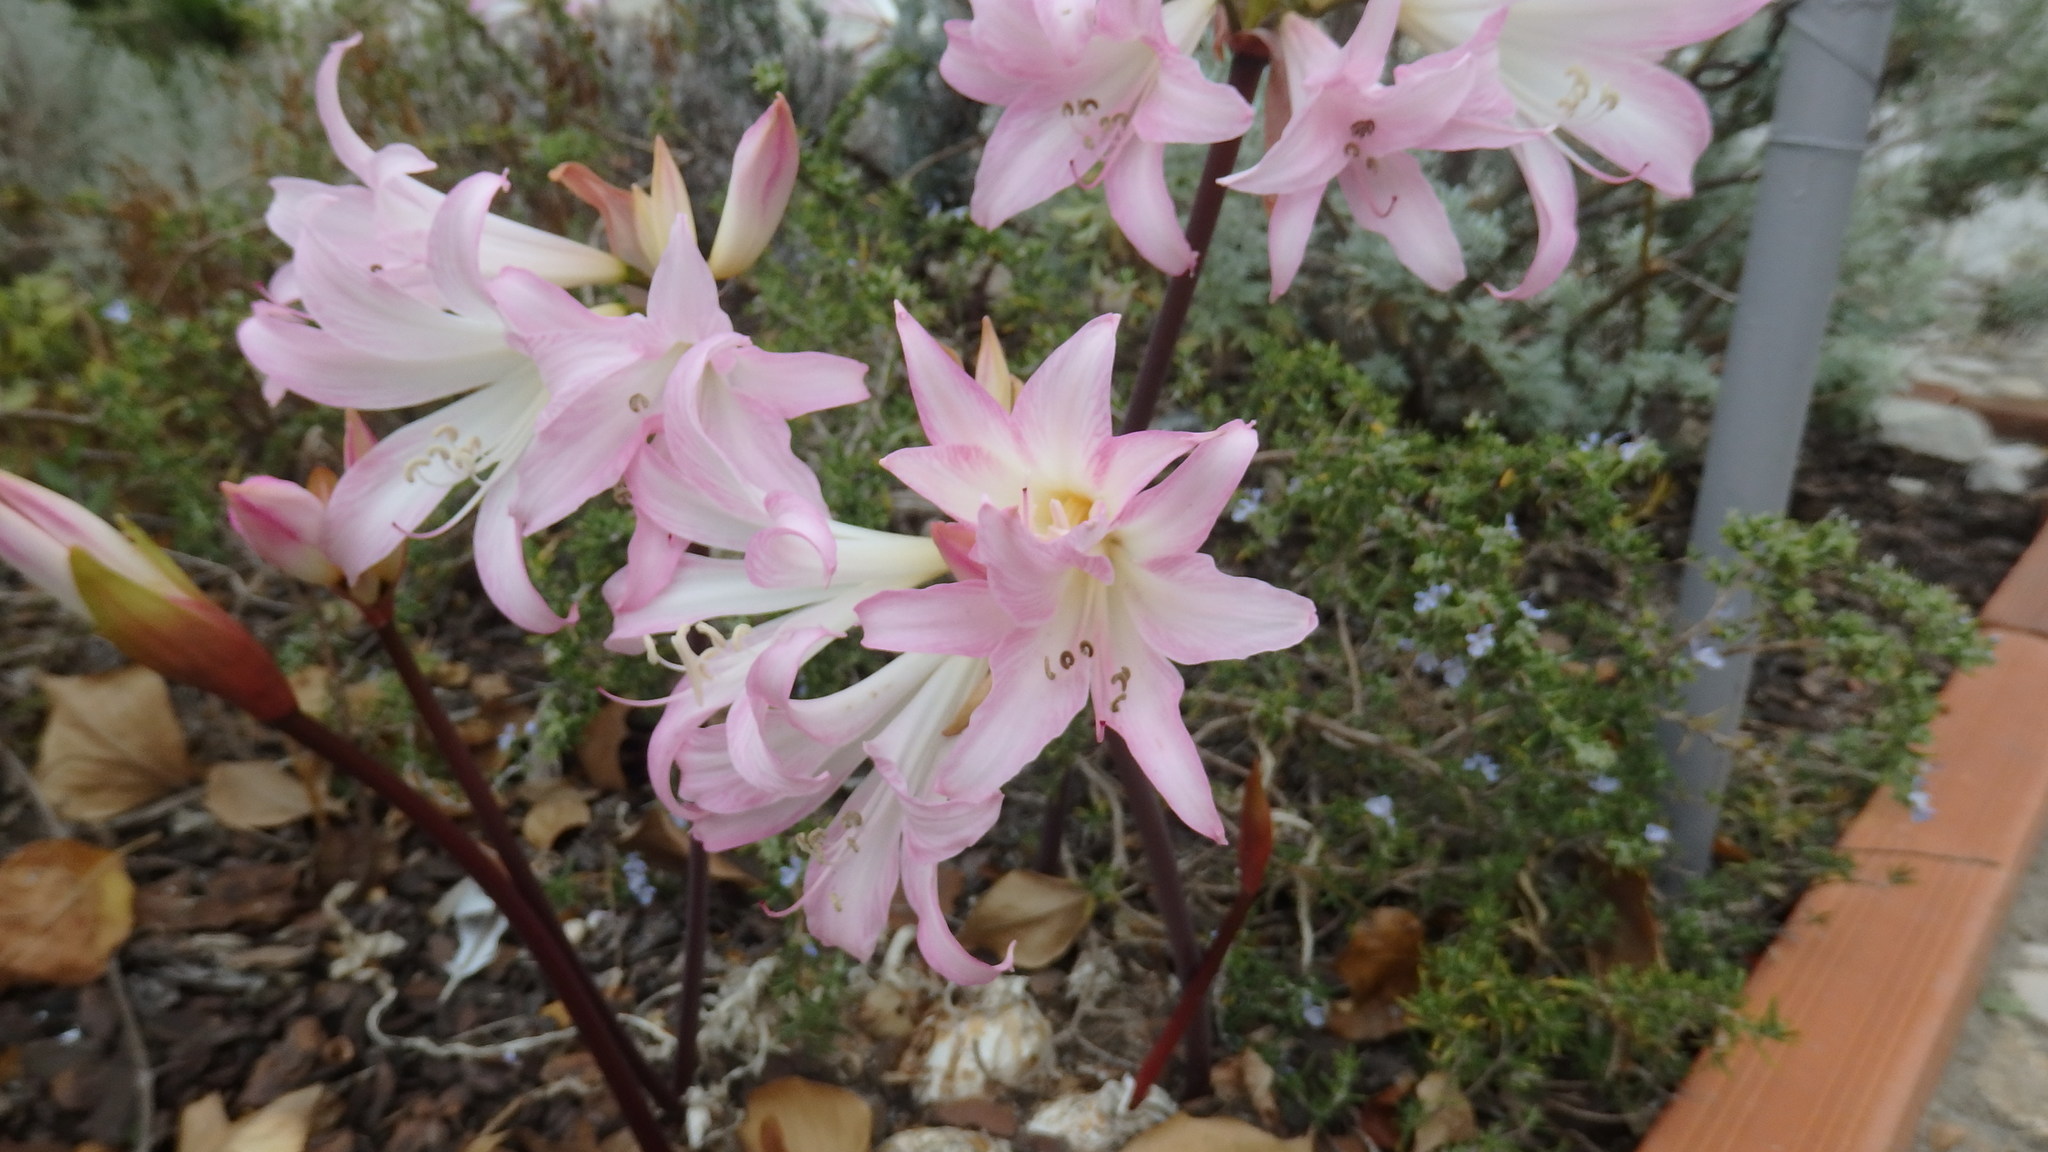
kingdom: Plantae
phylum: Tracheophyta
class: Liliopsida
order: Asparagales
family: Amaryllidaceae
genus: Amaryllis
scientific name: Amaryllis belladonna
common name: Jersey lily
